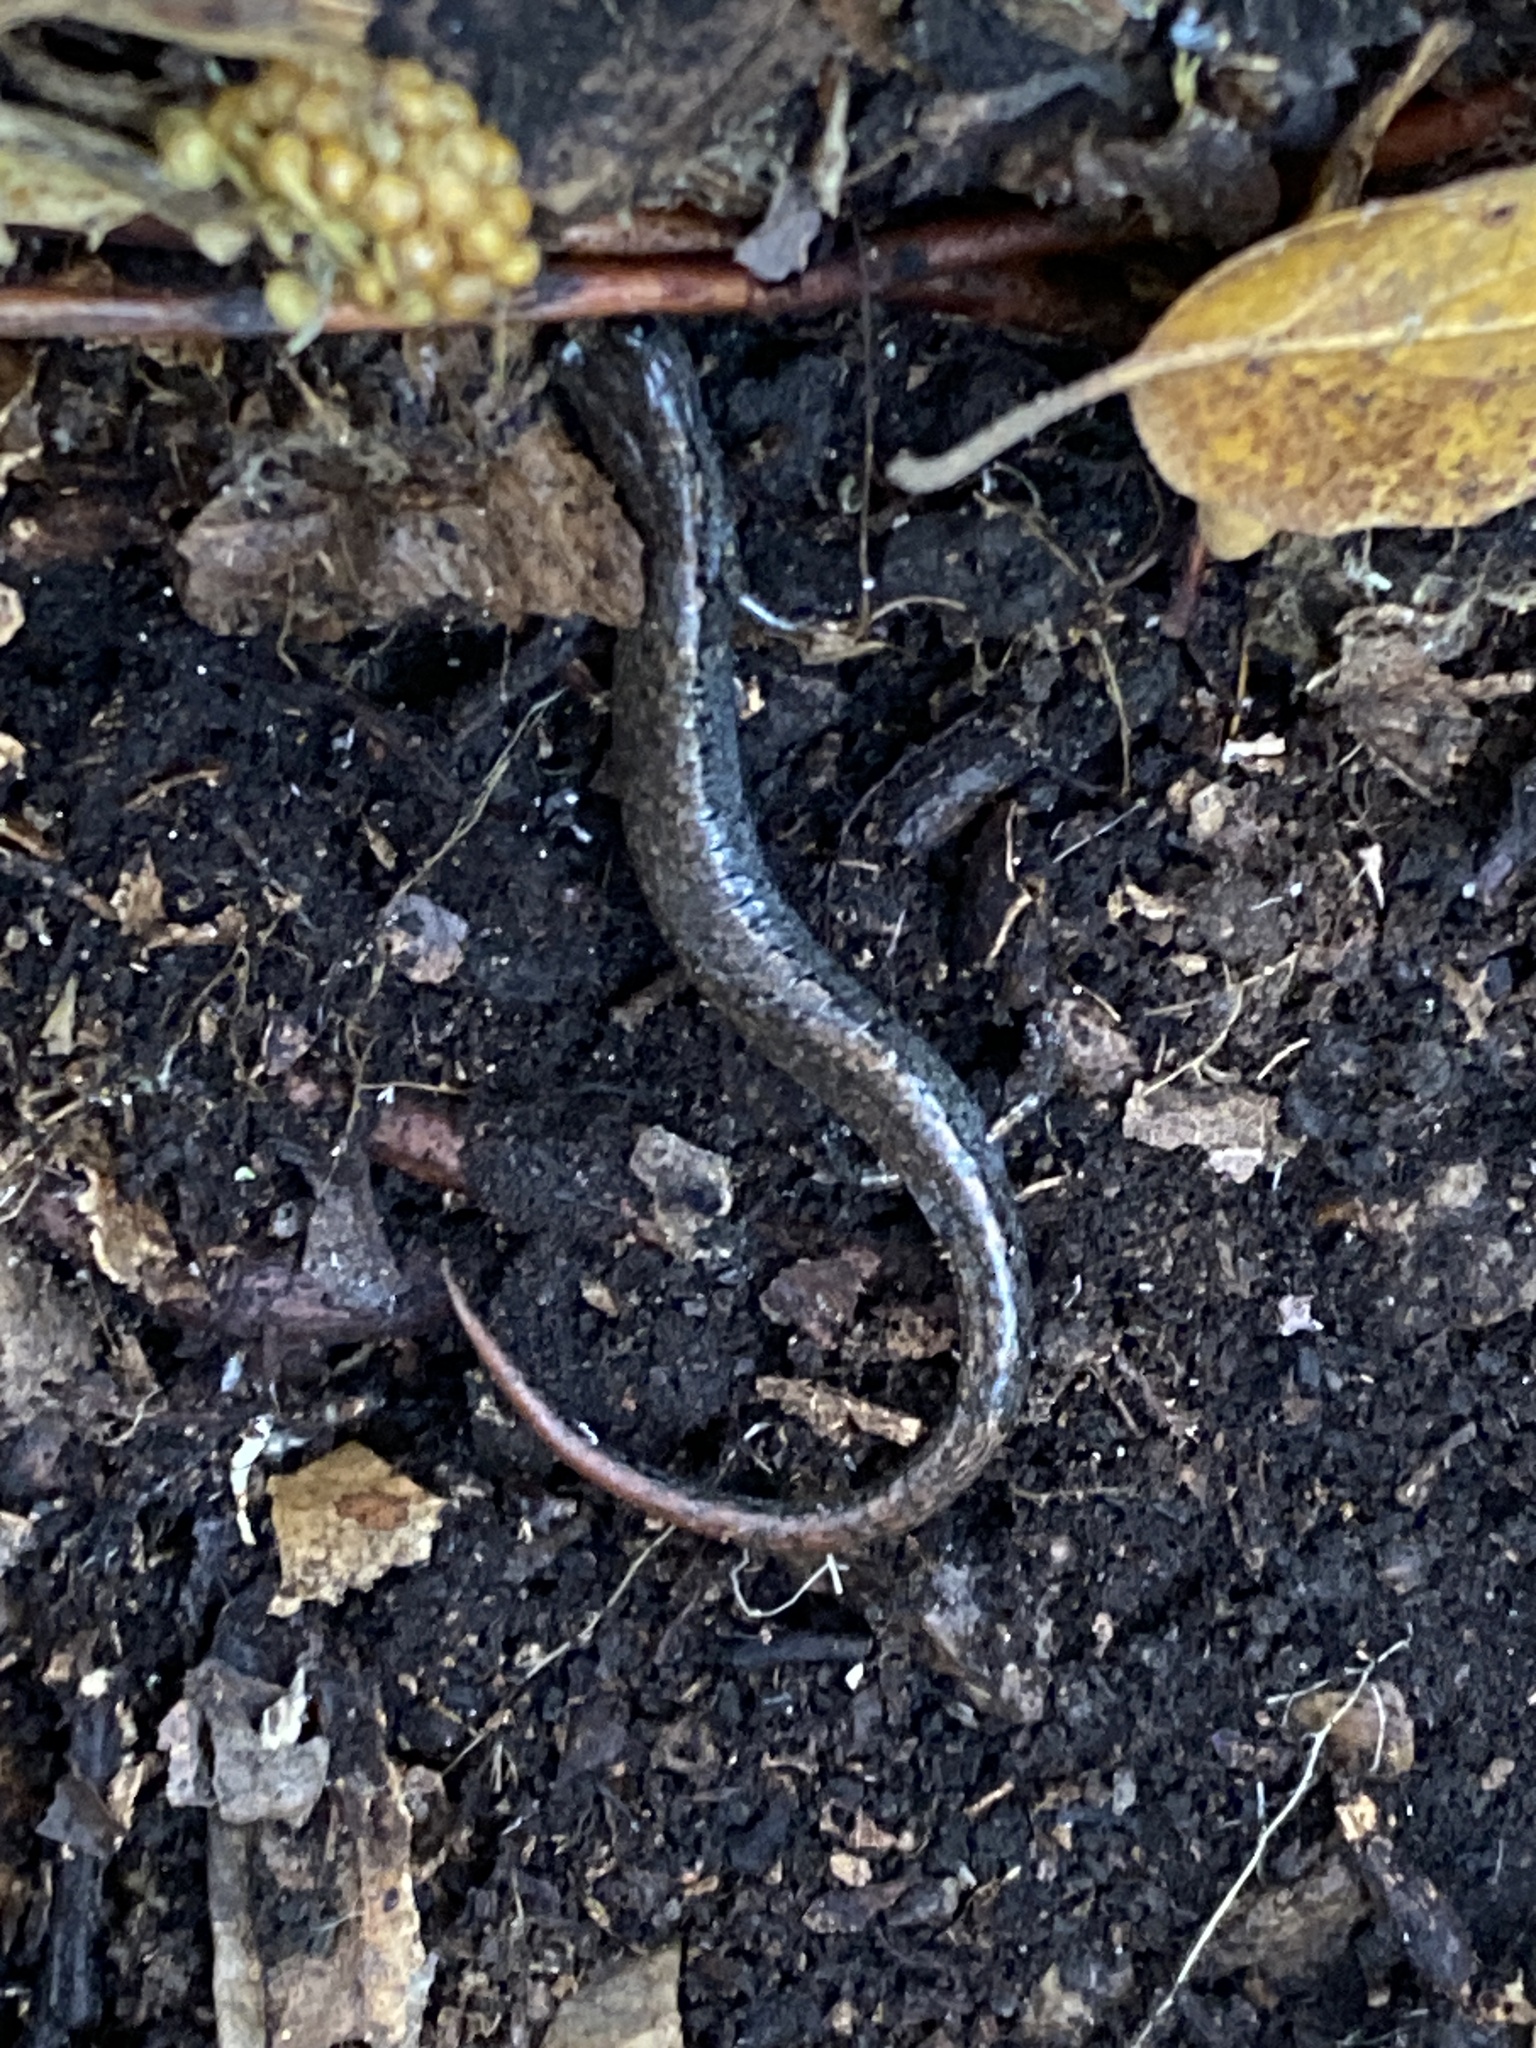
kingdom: Animalia
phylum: Chordata
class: Amphibia
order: Caudata
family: Plethodontidae
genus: Batrachoseps
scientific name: Batrachoseps attenuatus
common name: California slender salamander
